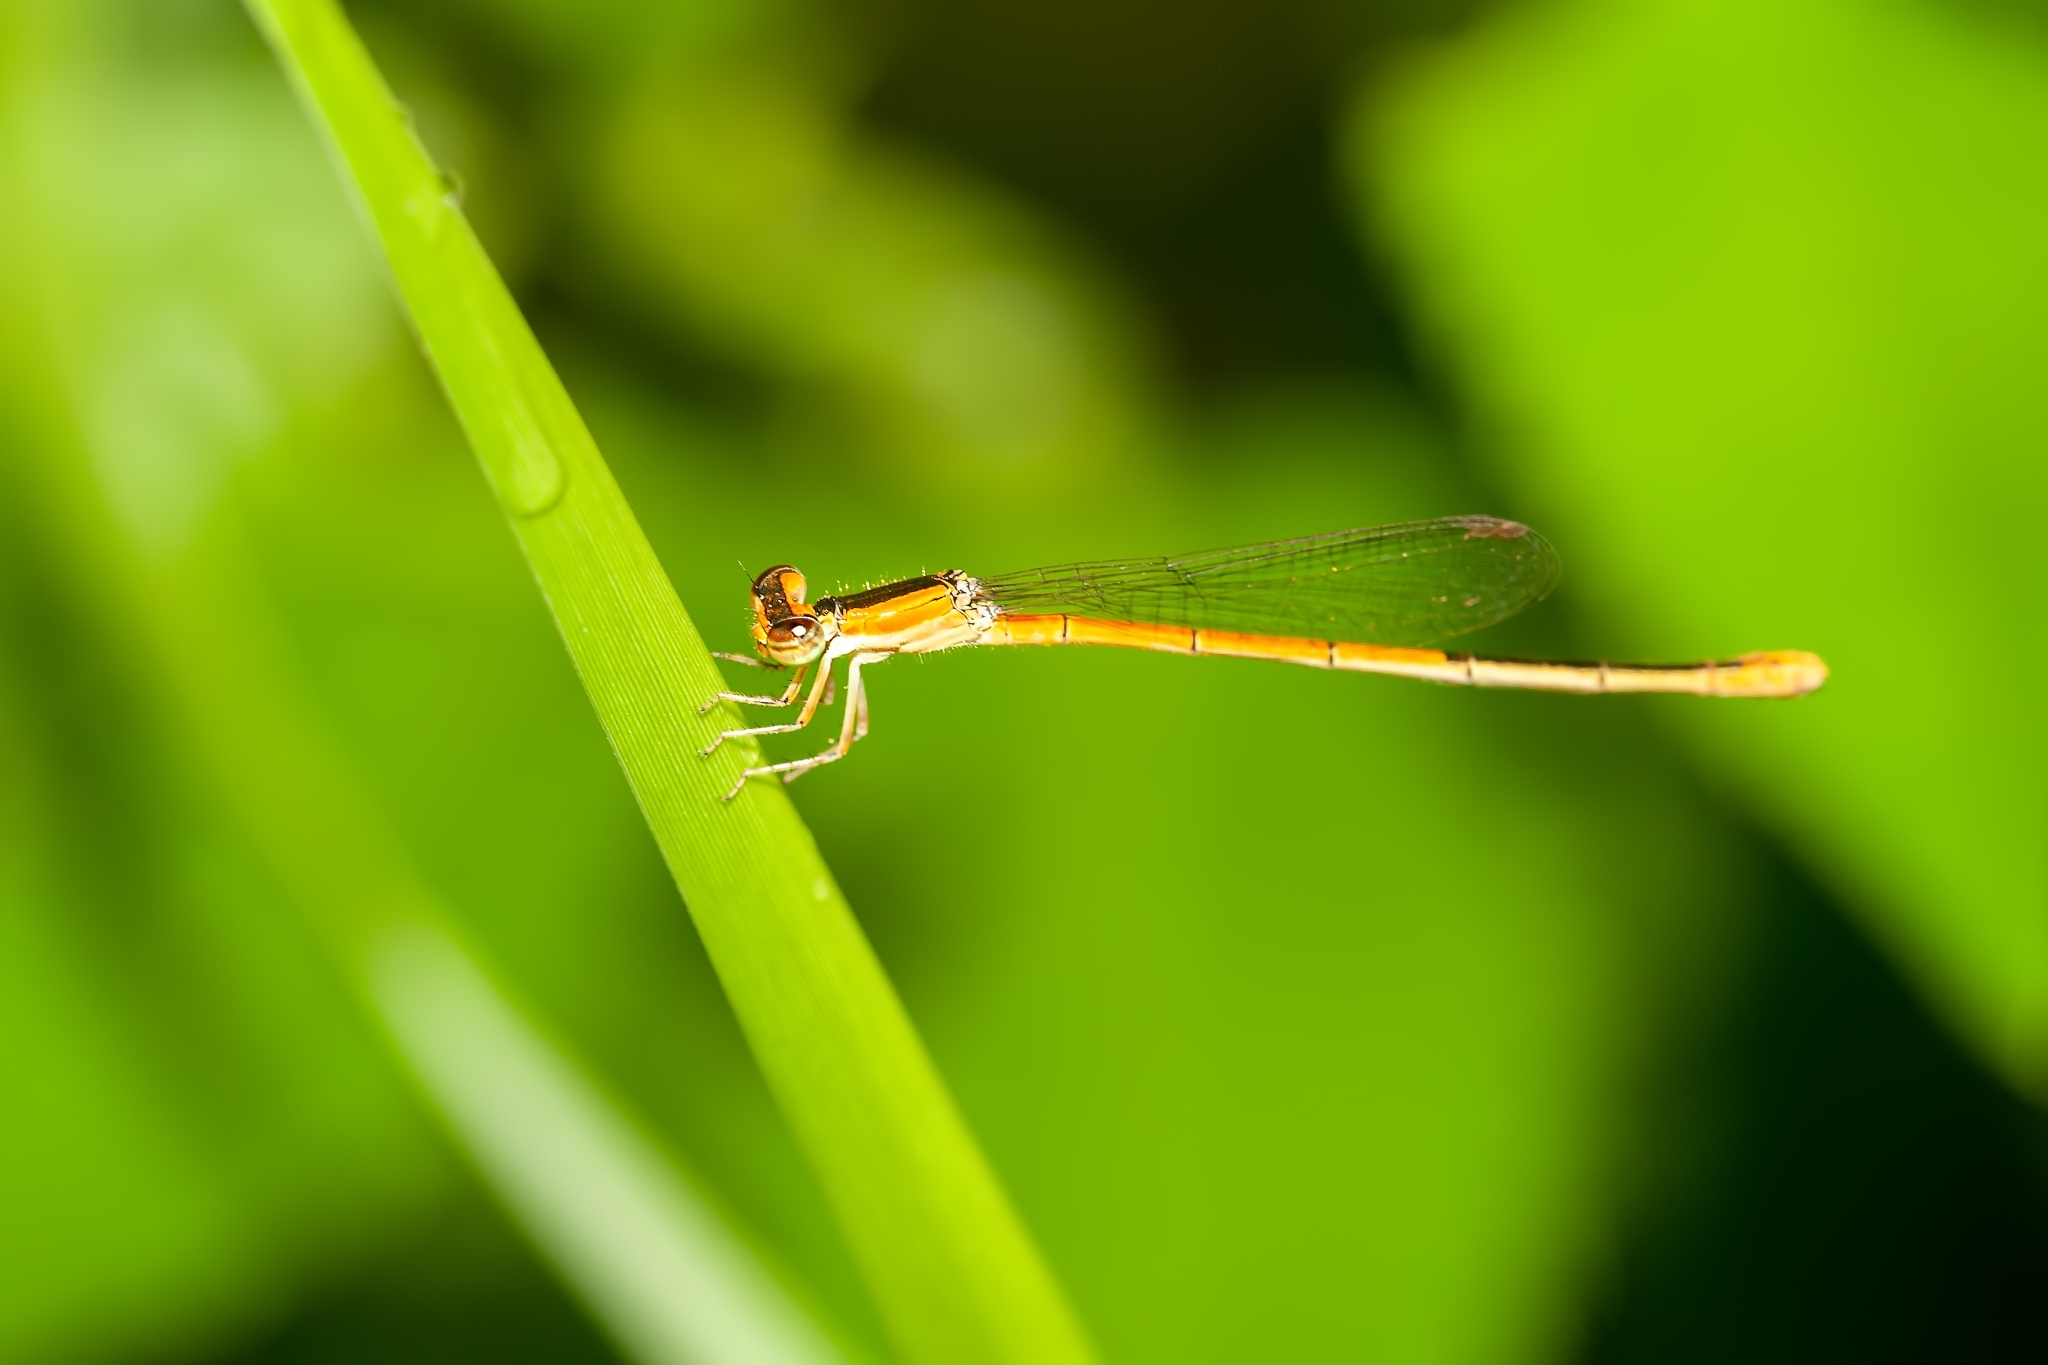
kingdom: Animalia
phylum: Arthropoda
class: Insecta
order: Odonata
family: Coenagrionidae
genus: Ischnura
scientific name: Ischnura hastata
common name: Citrine forktail
